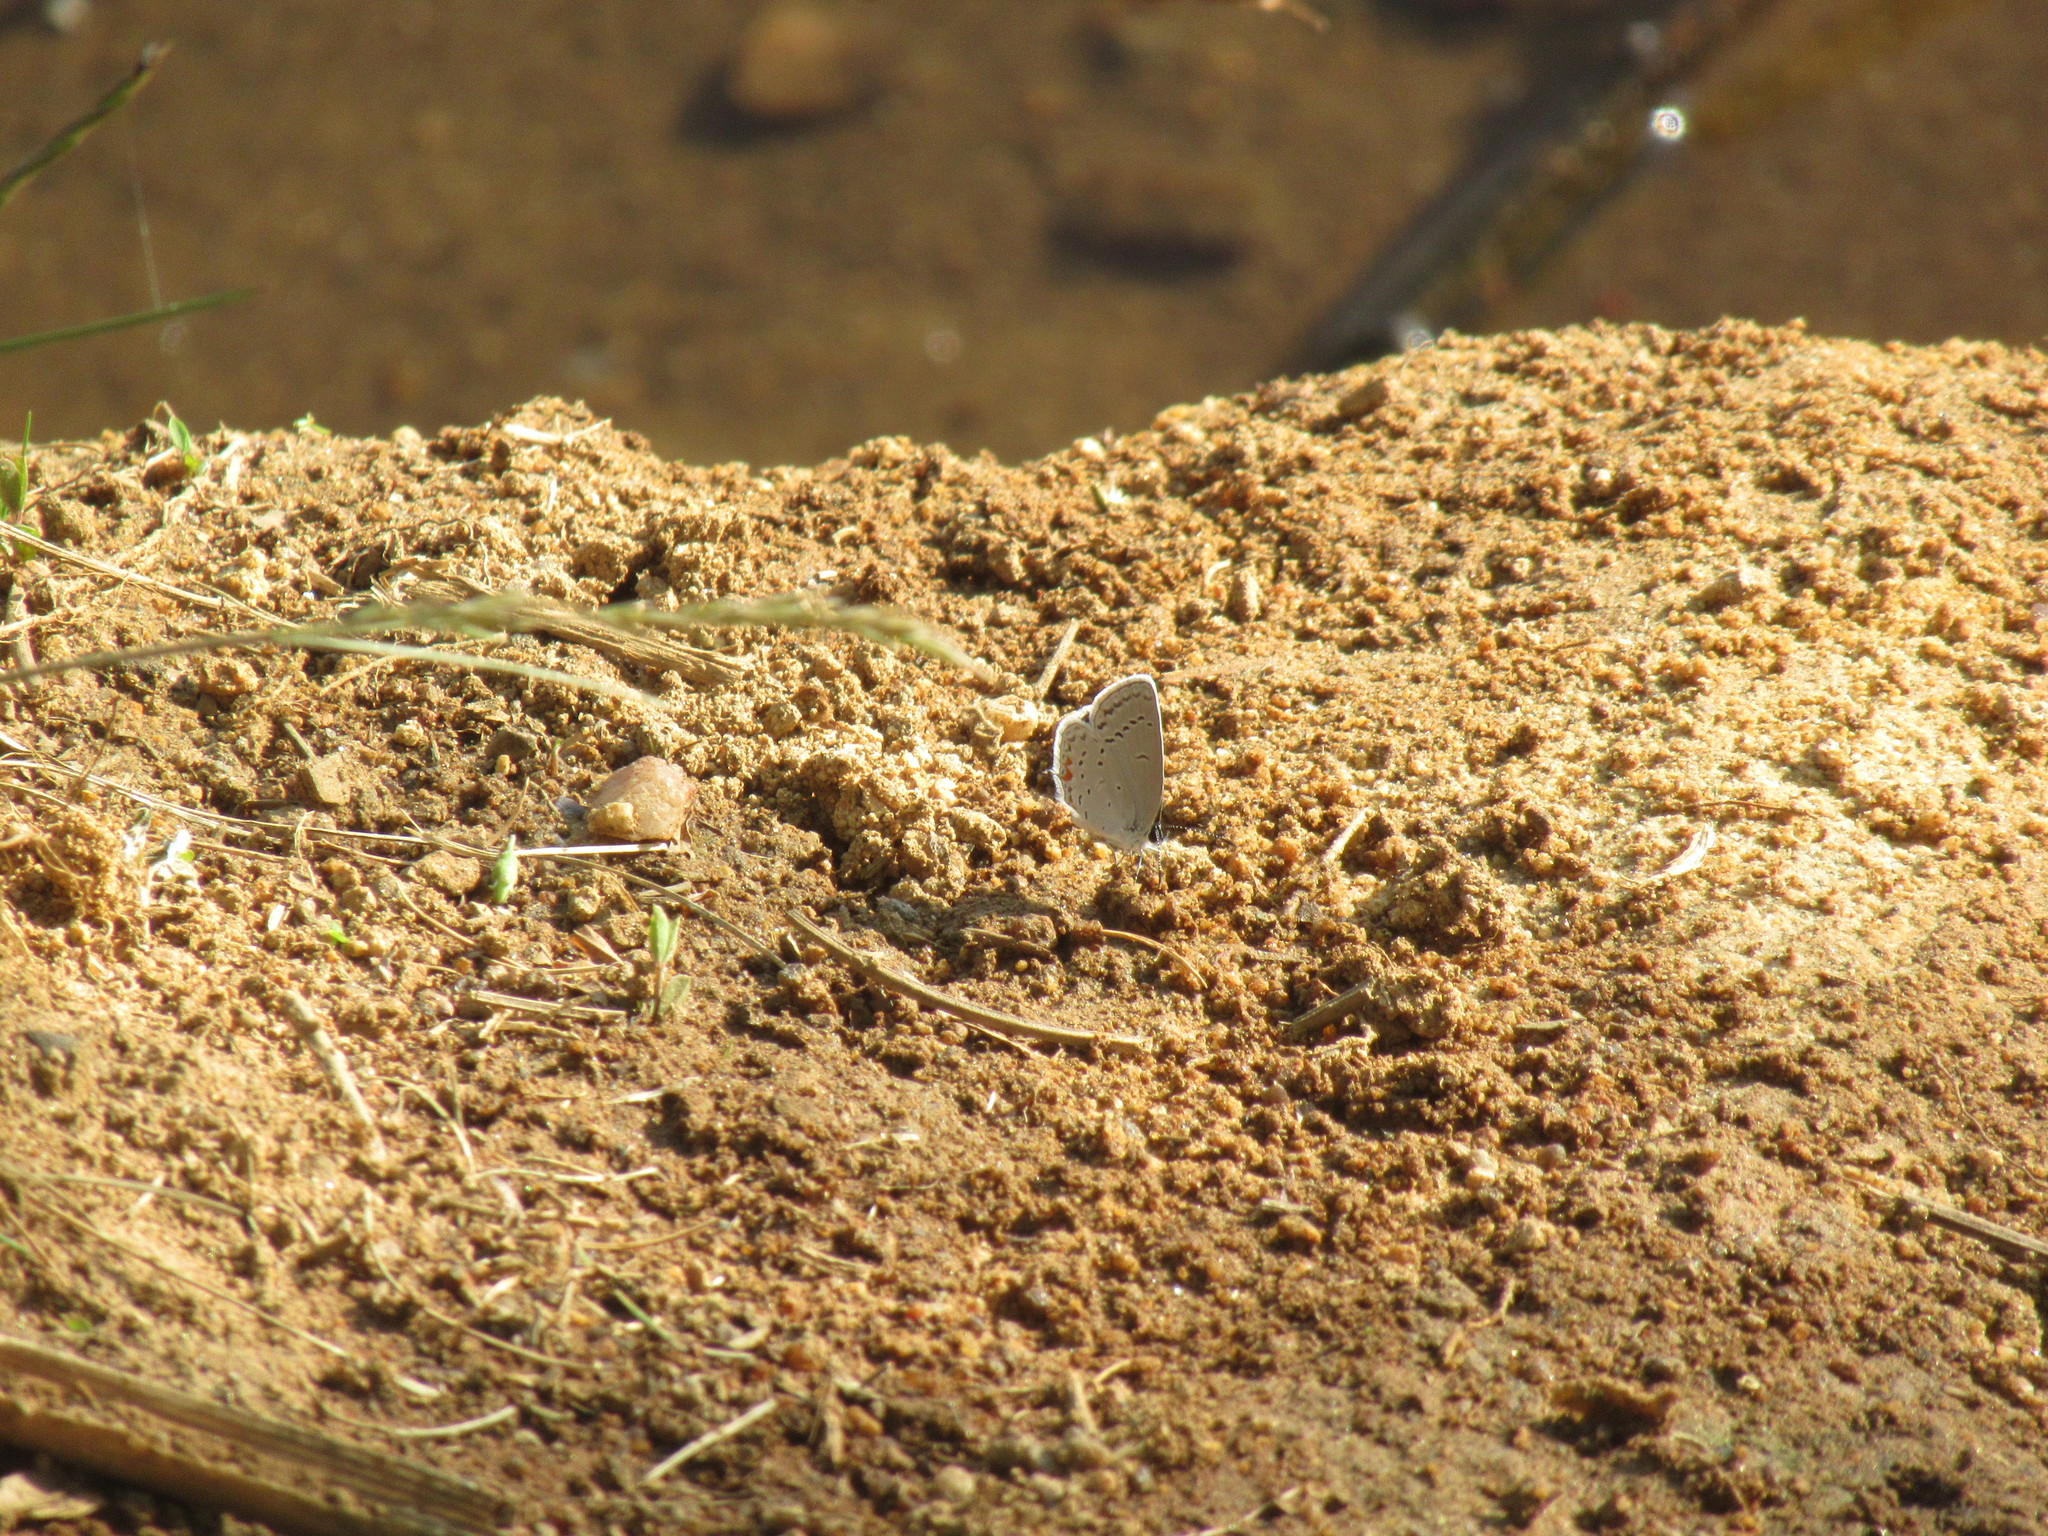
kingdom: Animalia
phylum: Arthropoda
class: Insecta
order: Lepidoptera
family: Lycaenidae
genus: Elkalyce
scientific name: Elkalyce comyntas
